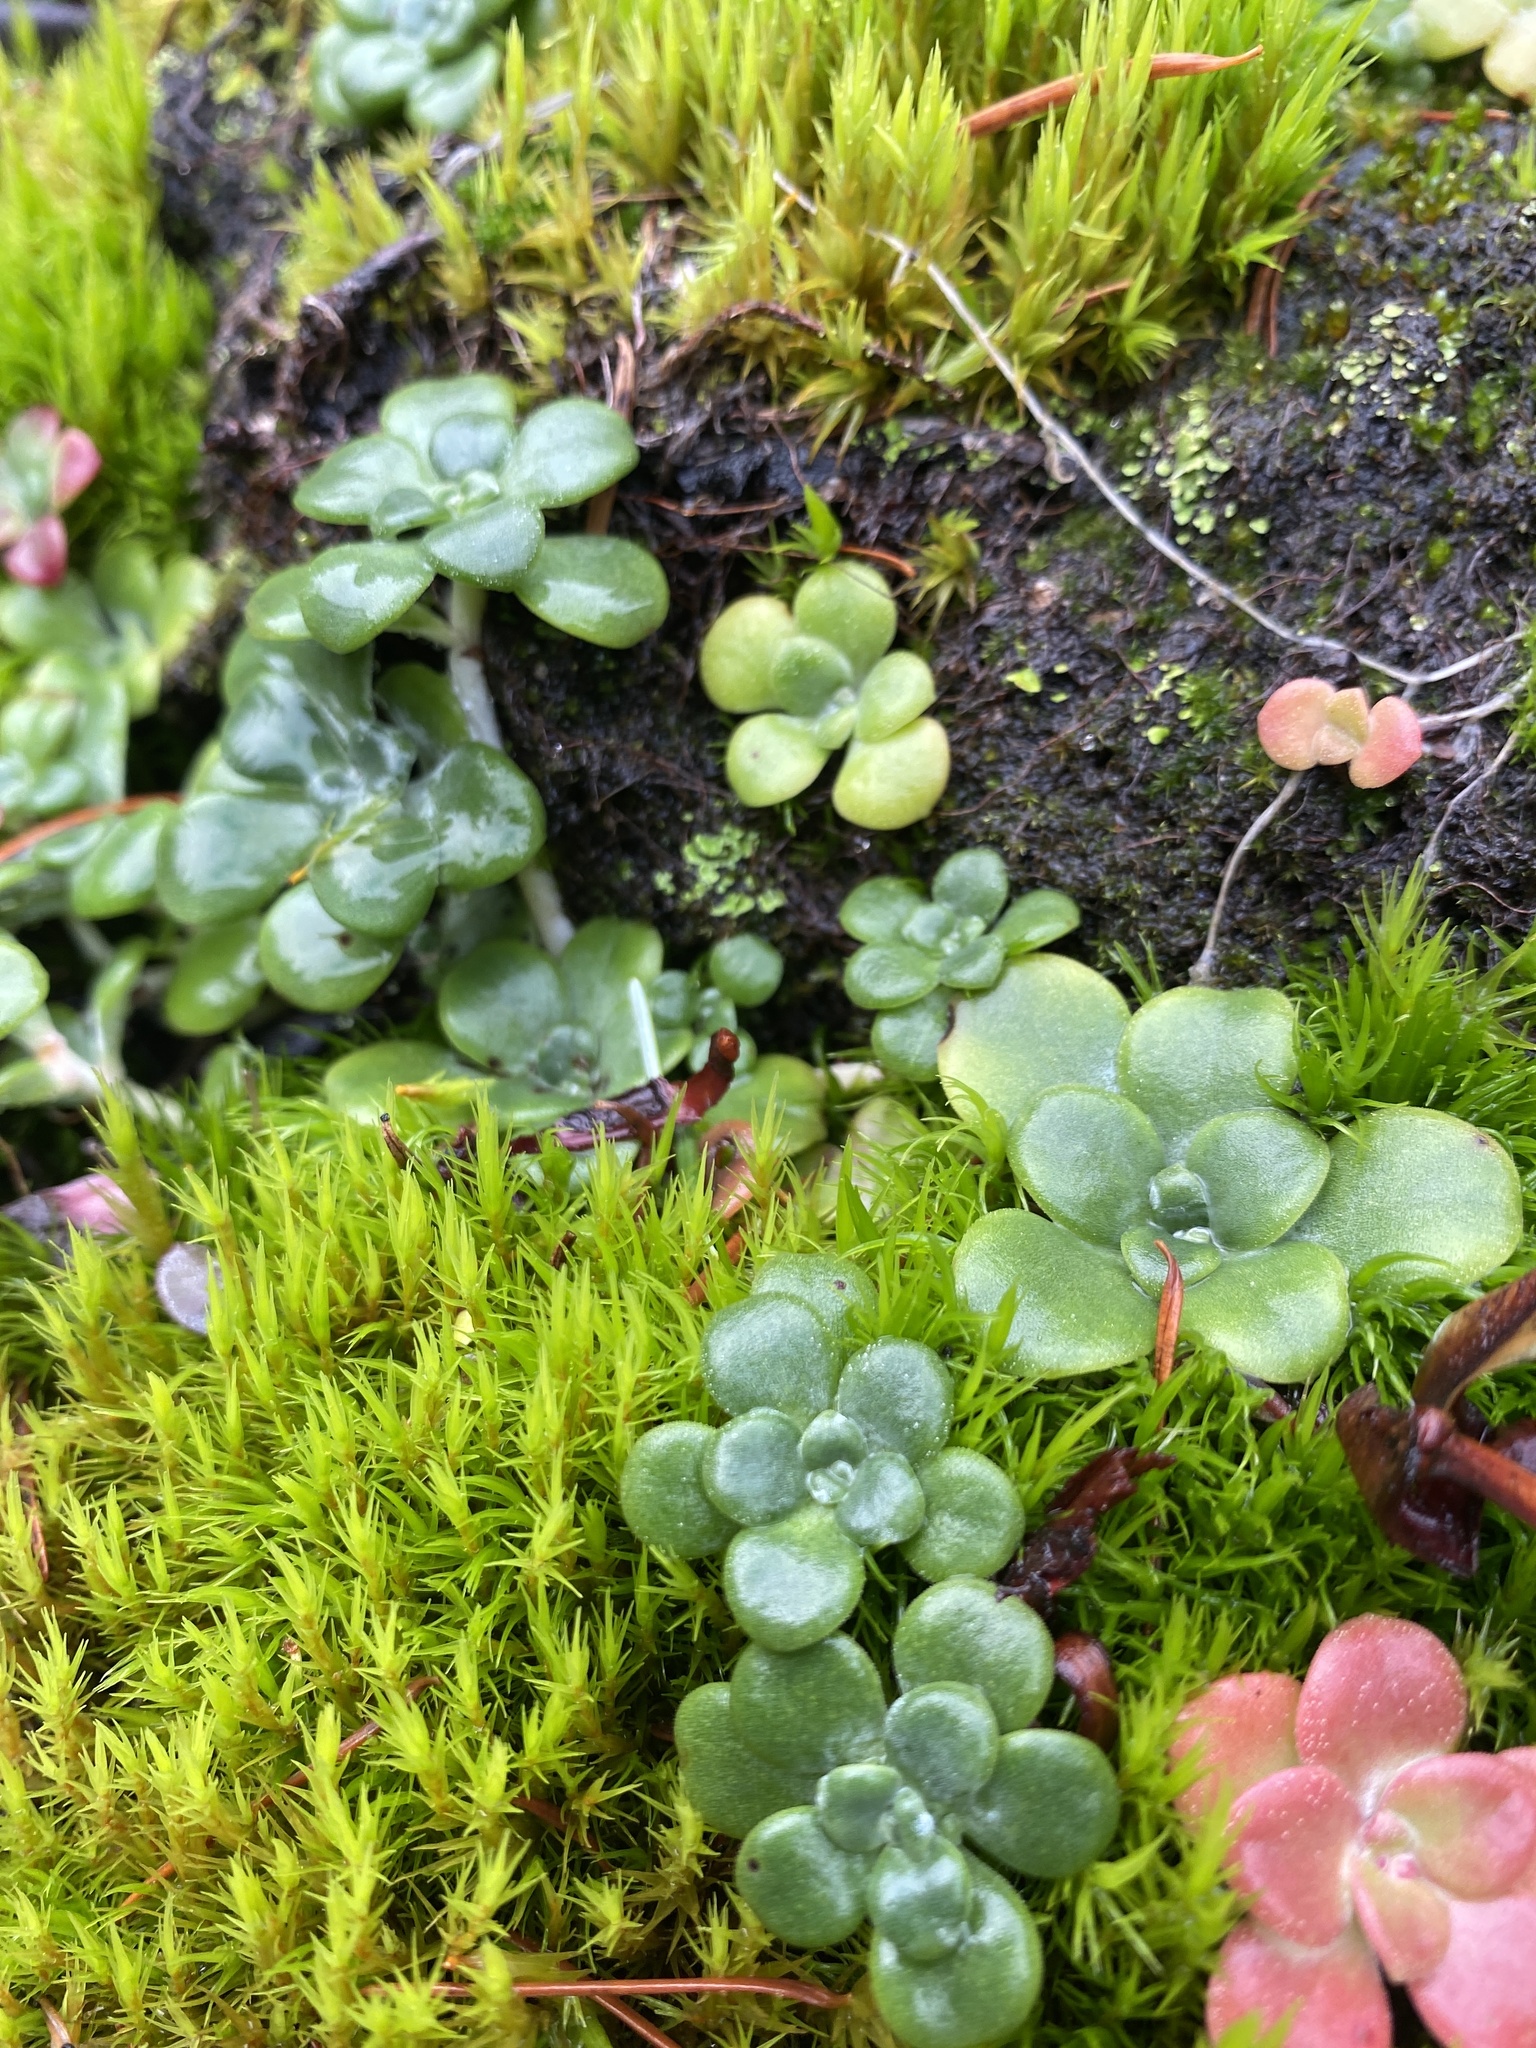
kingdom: Plantae
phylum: Tracheophyta
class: Magnoliopsida
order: Saxifragales
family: Crassulaceae
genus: Sedum
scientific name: Sedum spathulifolium
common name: Colorado stonecrop
